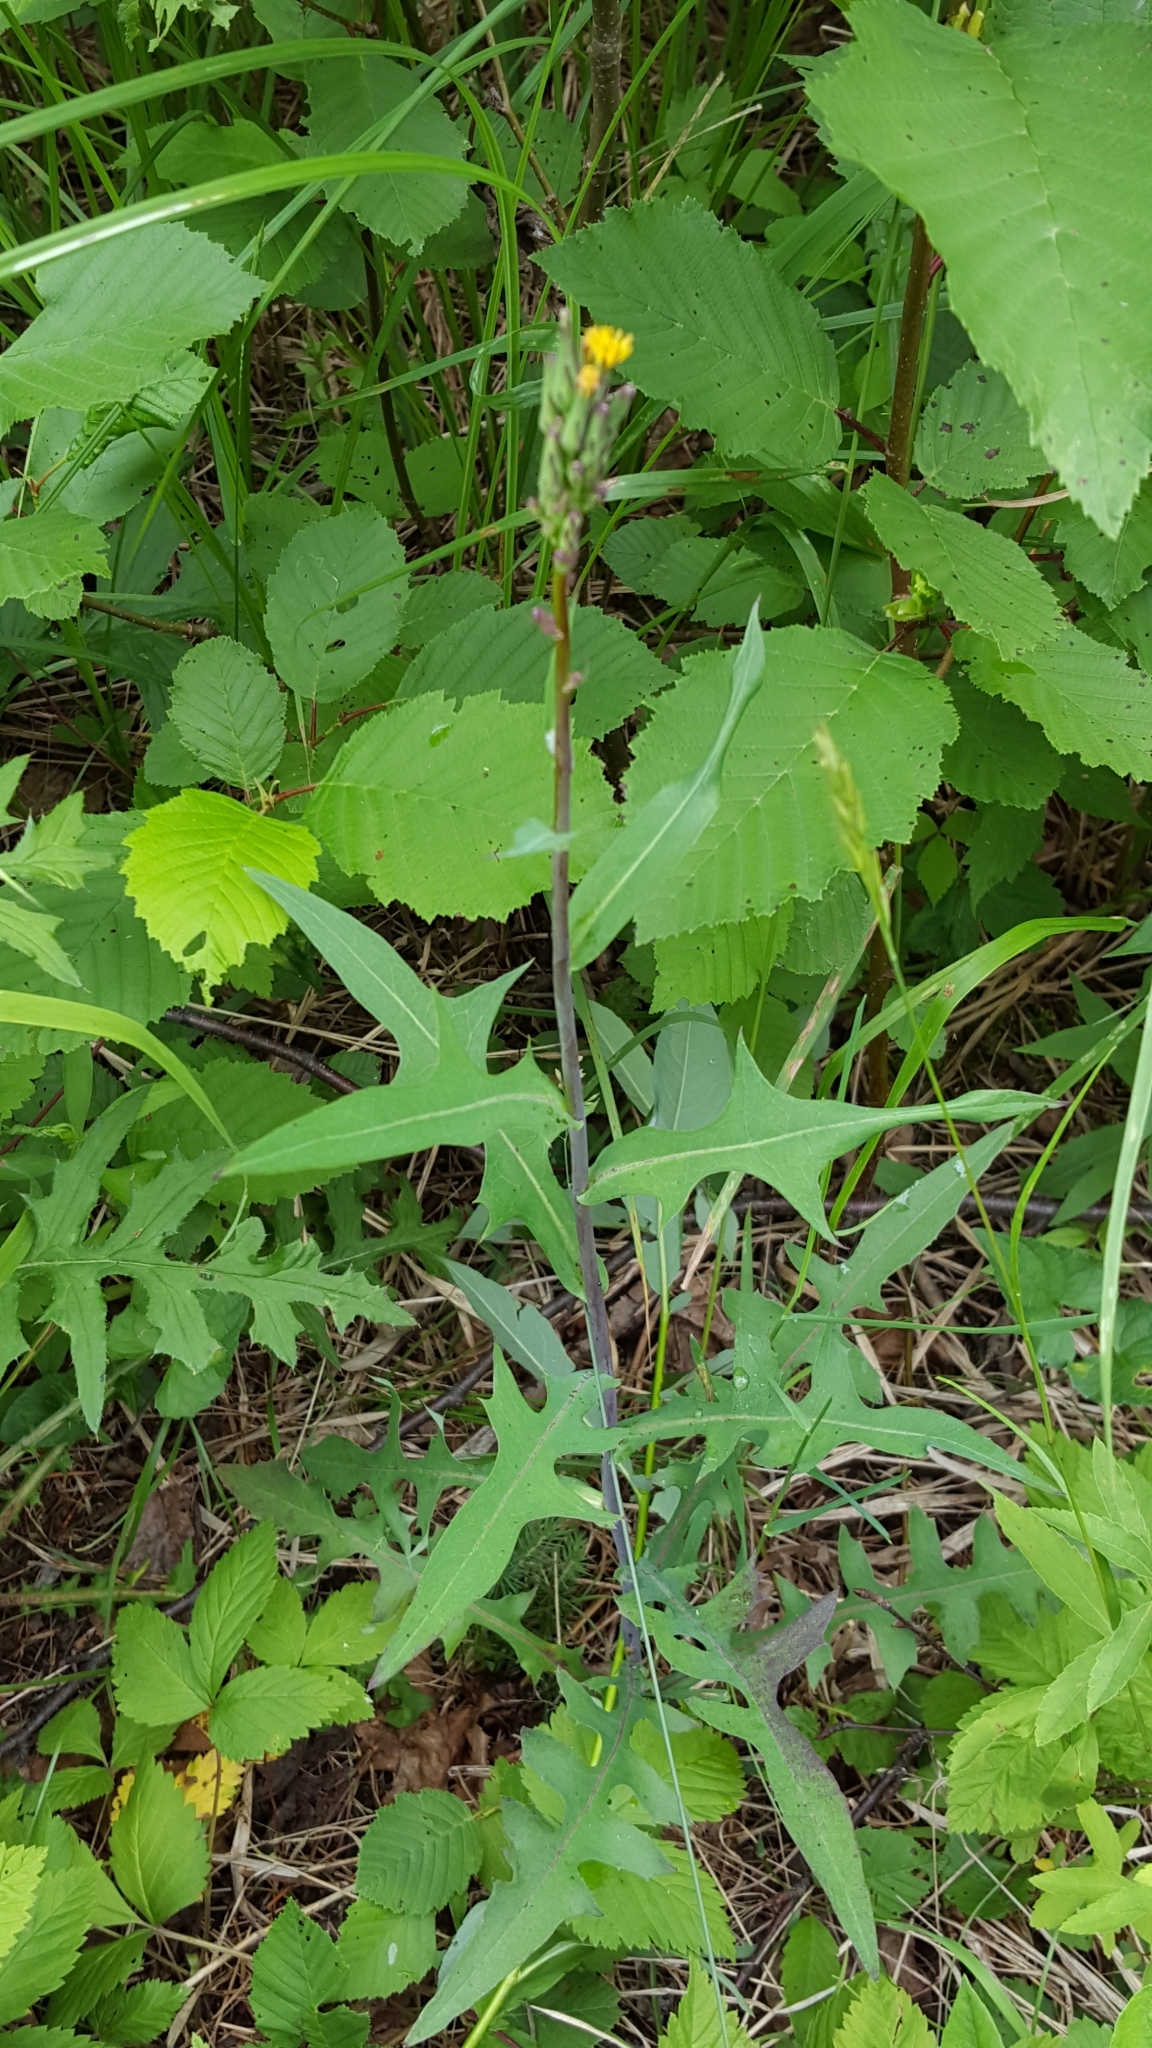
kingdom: Plantae
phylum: Tracheophyta
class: Magnoliopsida
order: Asterales
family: Asteraceae
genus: Lactuca
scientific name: Lactuca canadensis
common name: Canada lettuce
